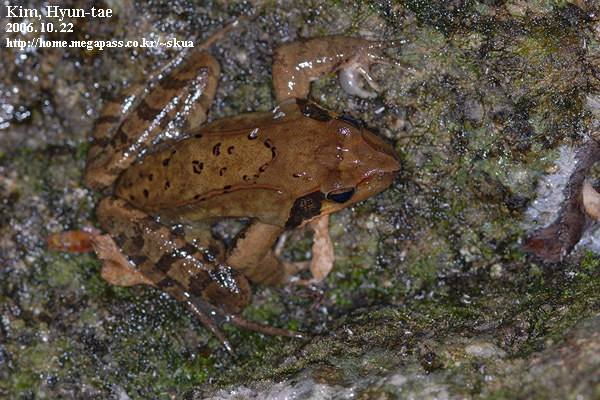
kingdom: Animalia
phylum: Chordata
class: Amphibia
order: Anura
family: Ranidae
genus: Rana
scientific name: Rana uenoi
